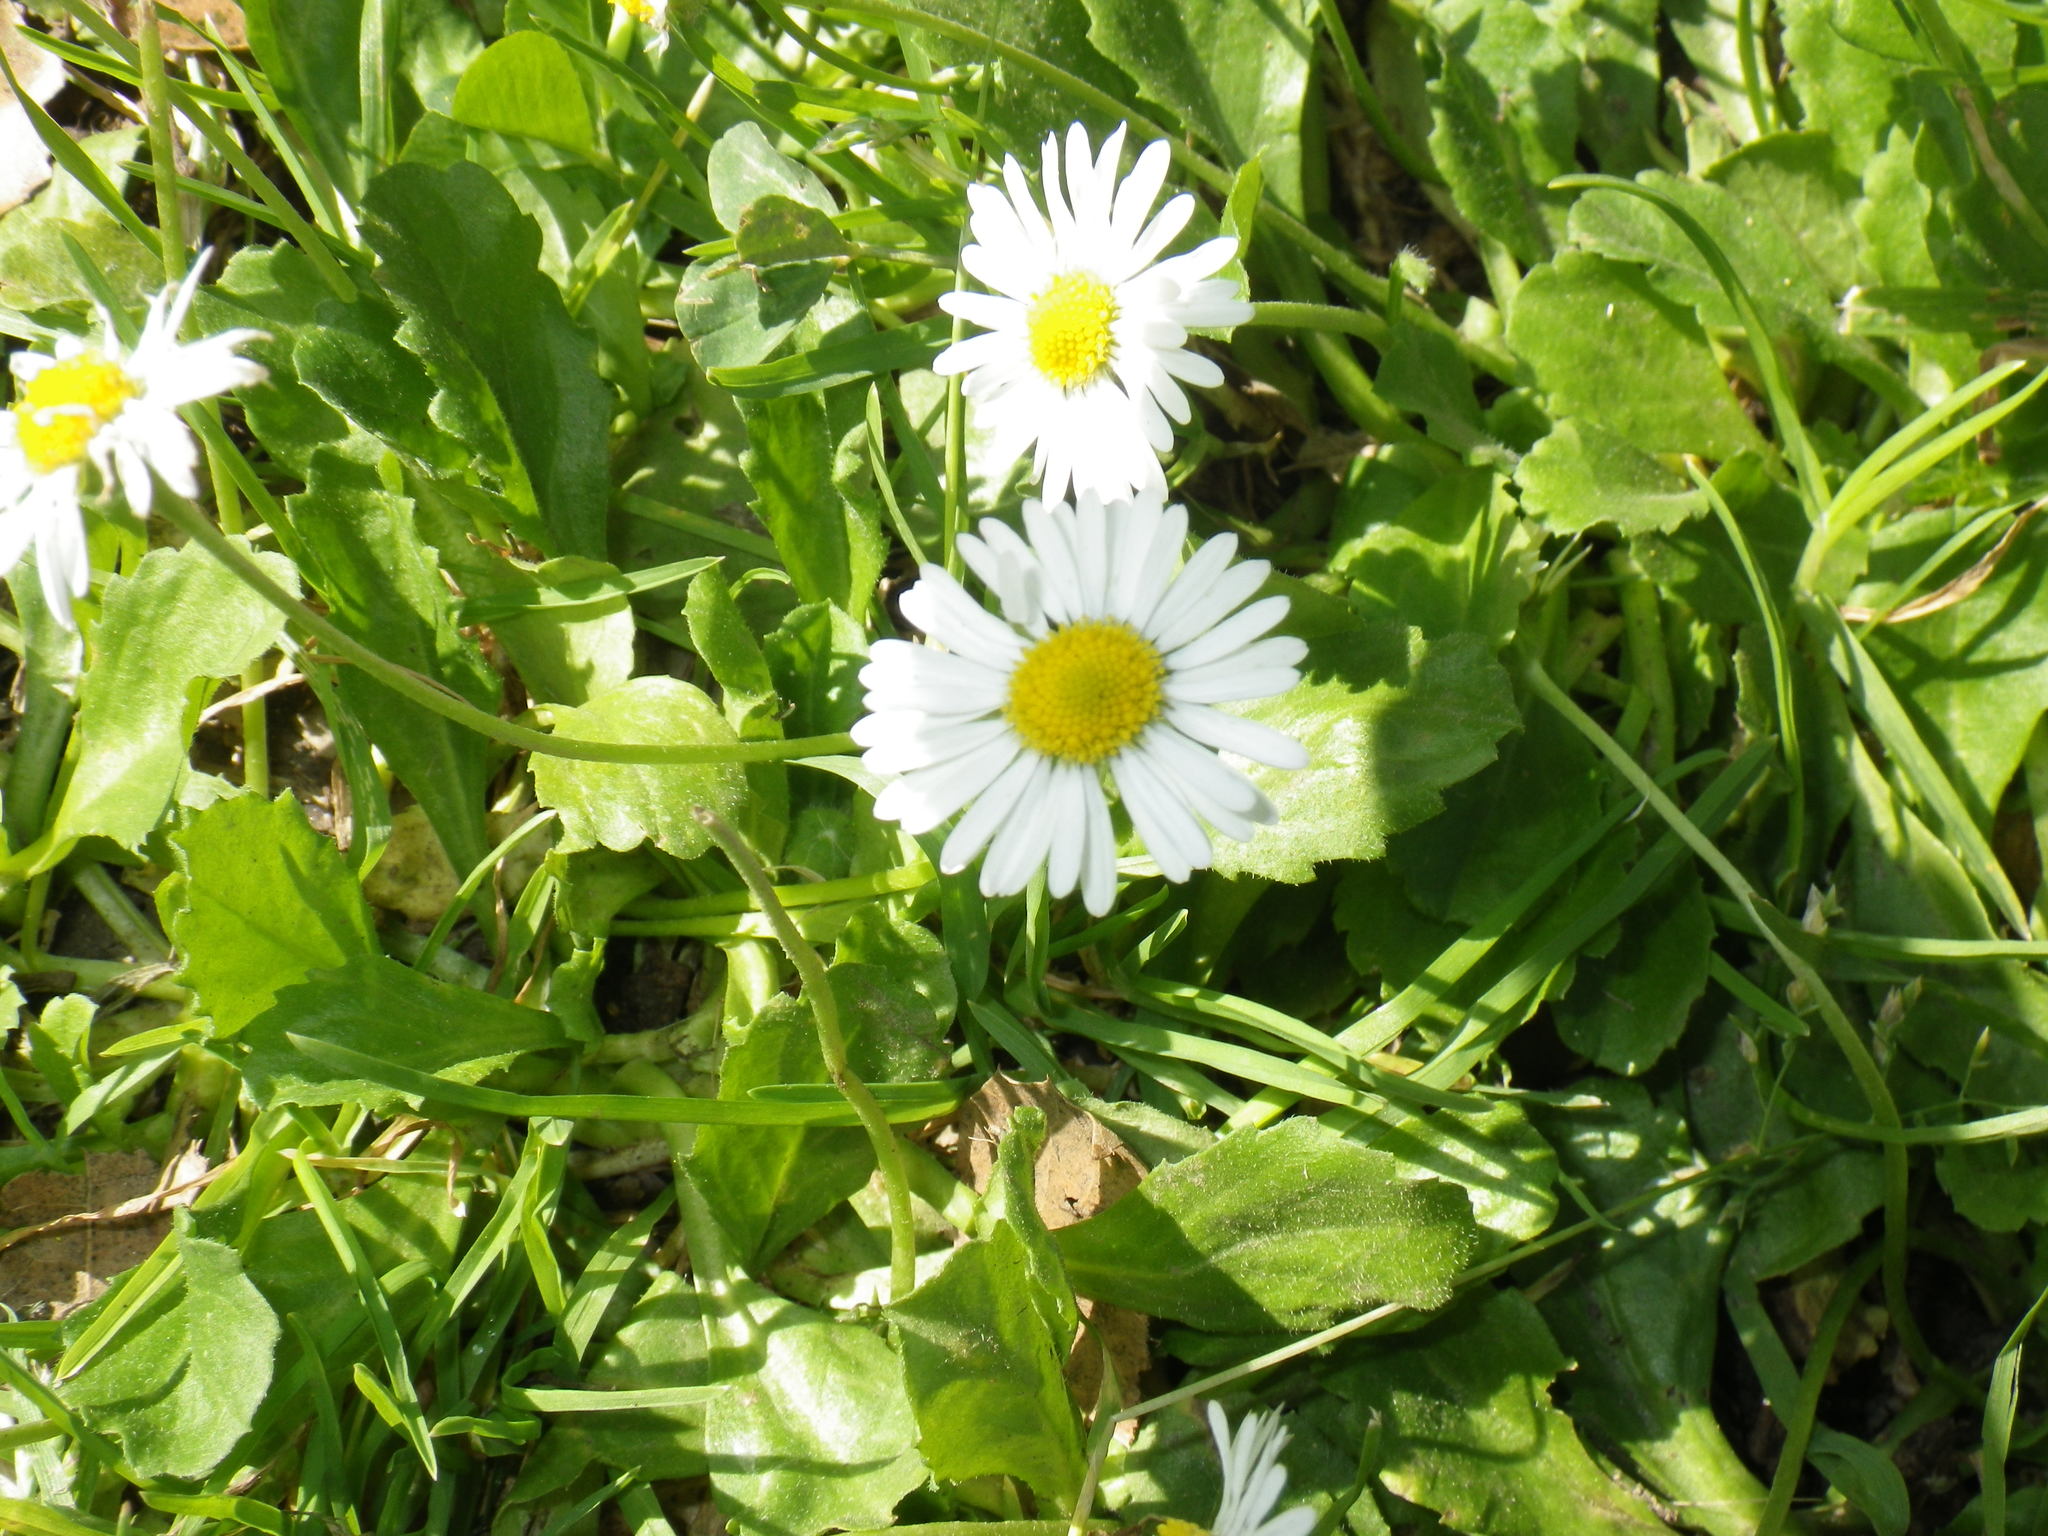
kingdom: Plantae
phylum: Tracheophyta
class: Magnoliopsida
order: Asterales
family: Asteraceae
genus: Bellis
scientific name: Bellis perennis
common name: Lawndaisy
